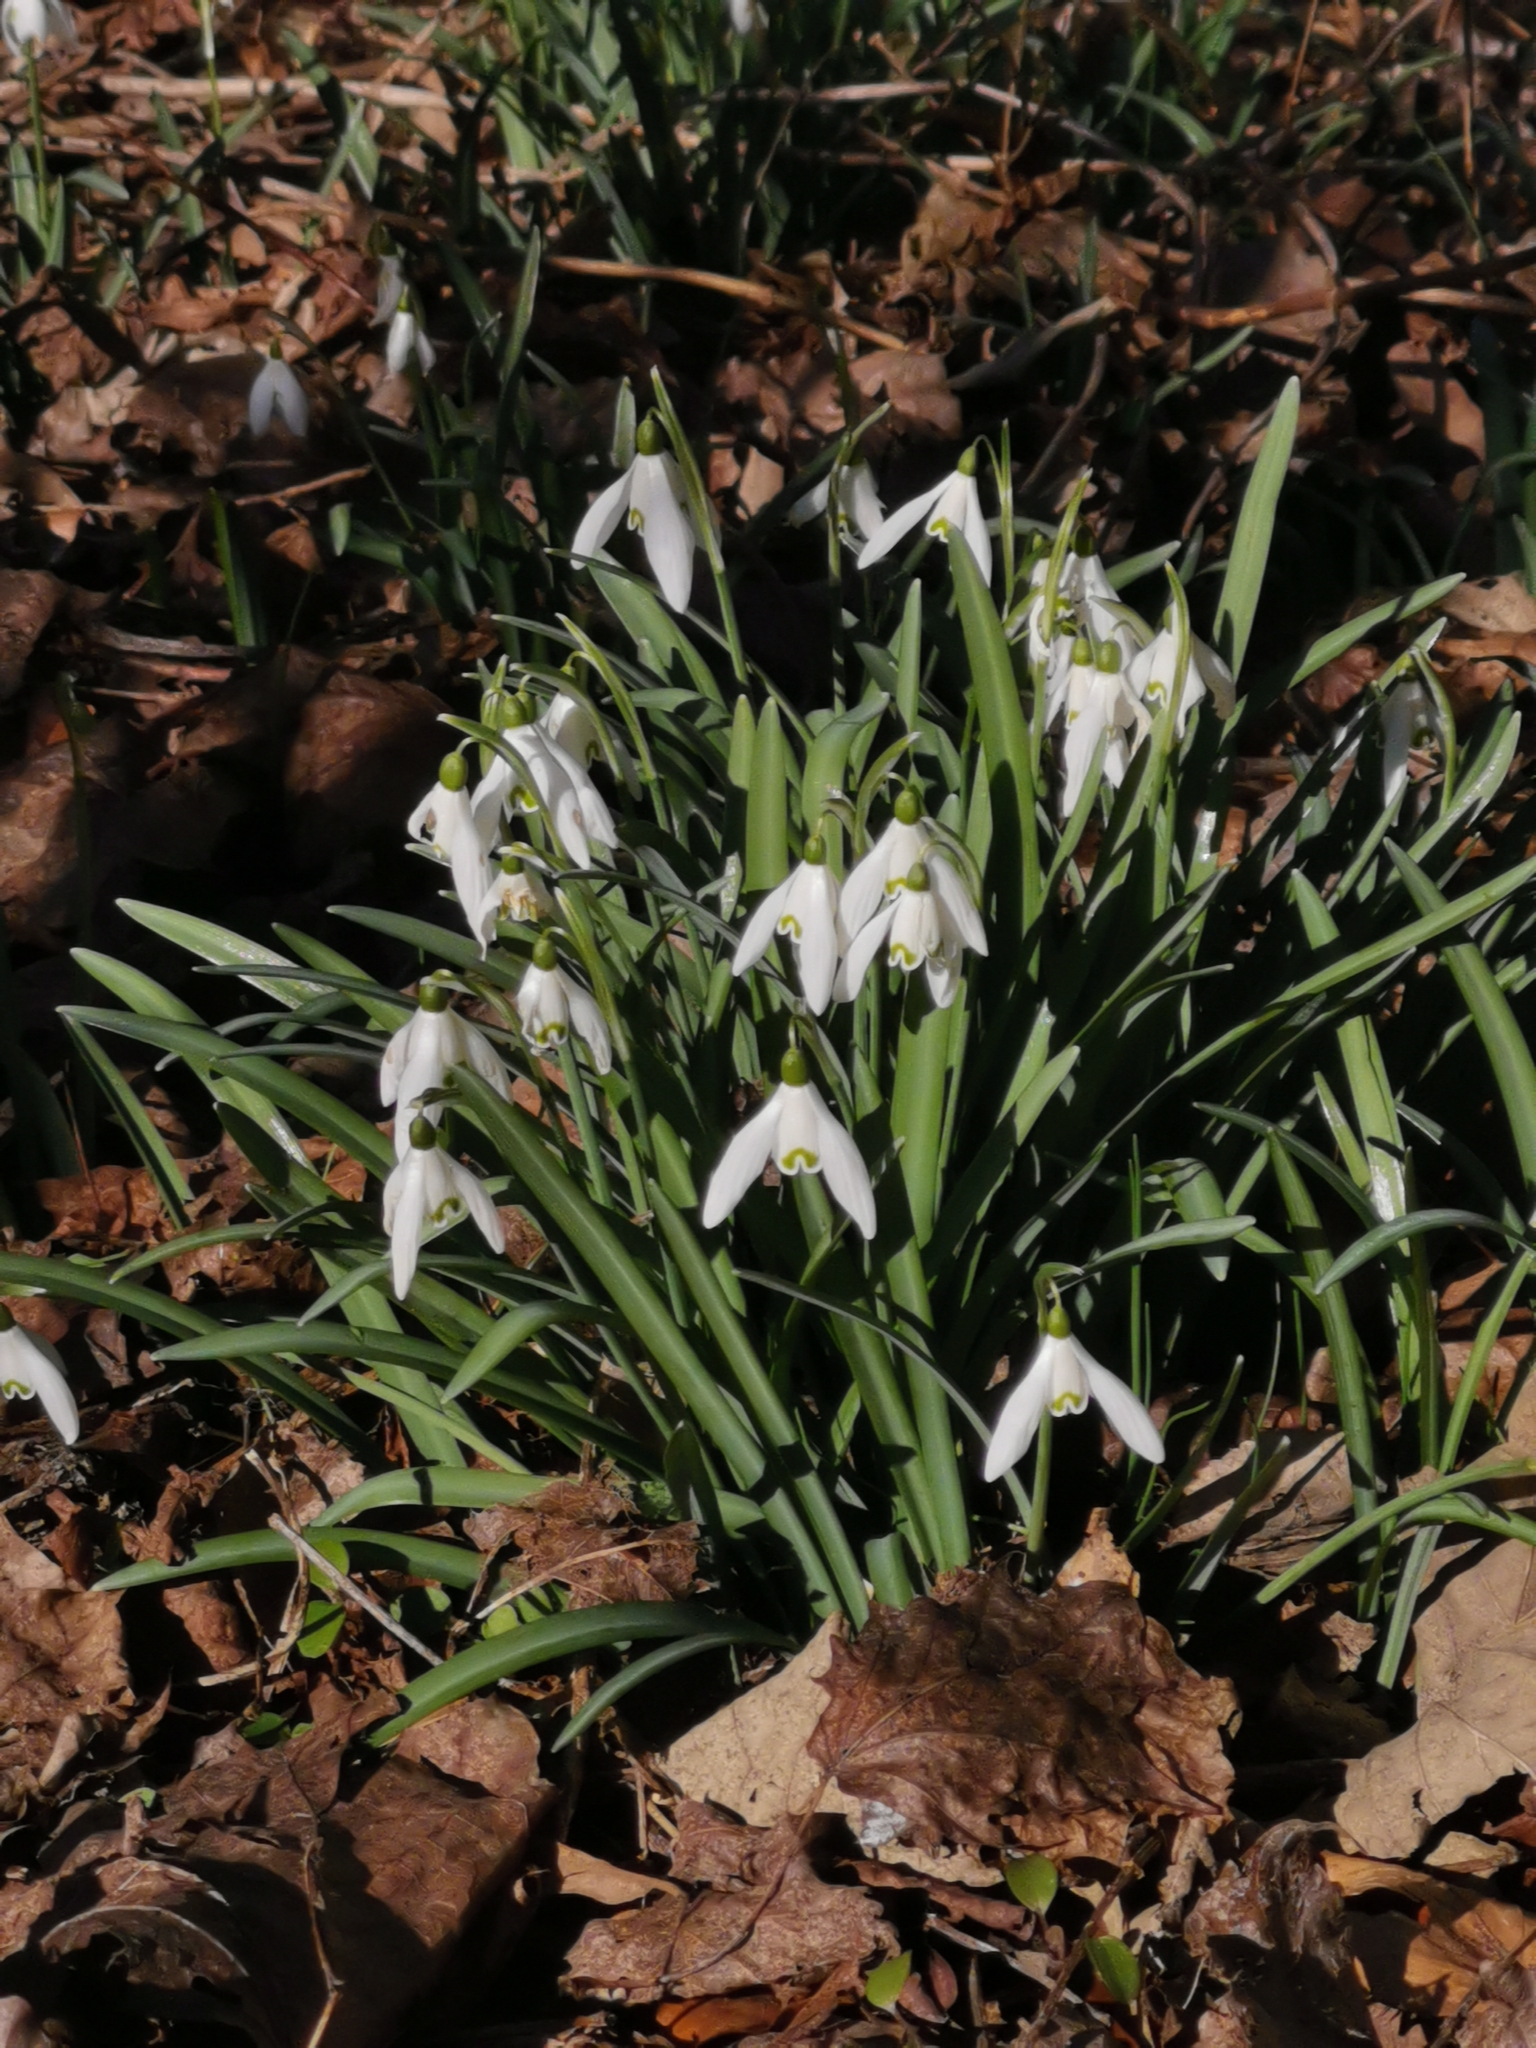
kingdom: Plantae
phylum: Tracheophyta
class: Liliopsida
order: Asparagales
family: Amaryllidaceae
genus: Galanthus
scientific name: Galanthus nivalis
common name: Snowdrop
